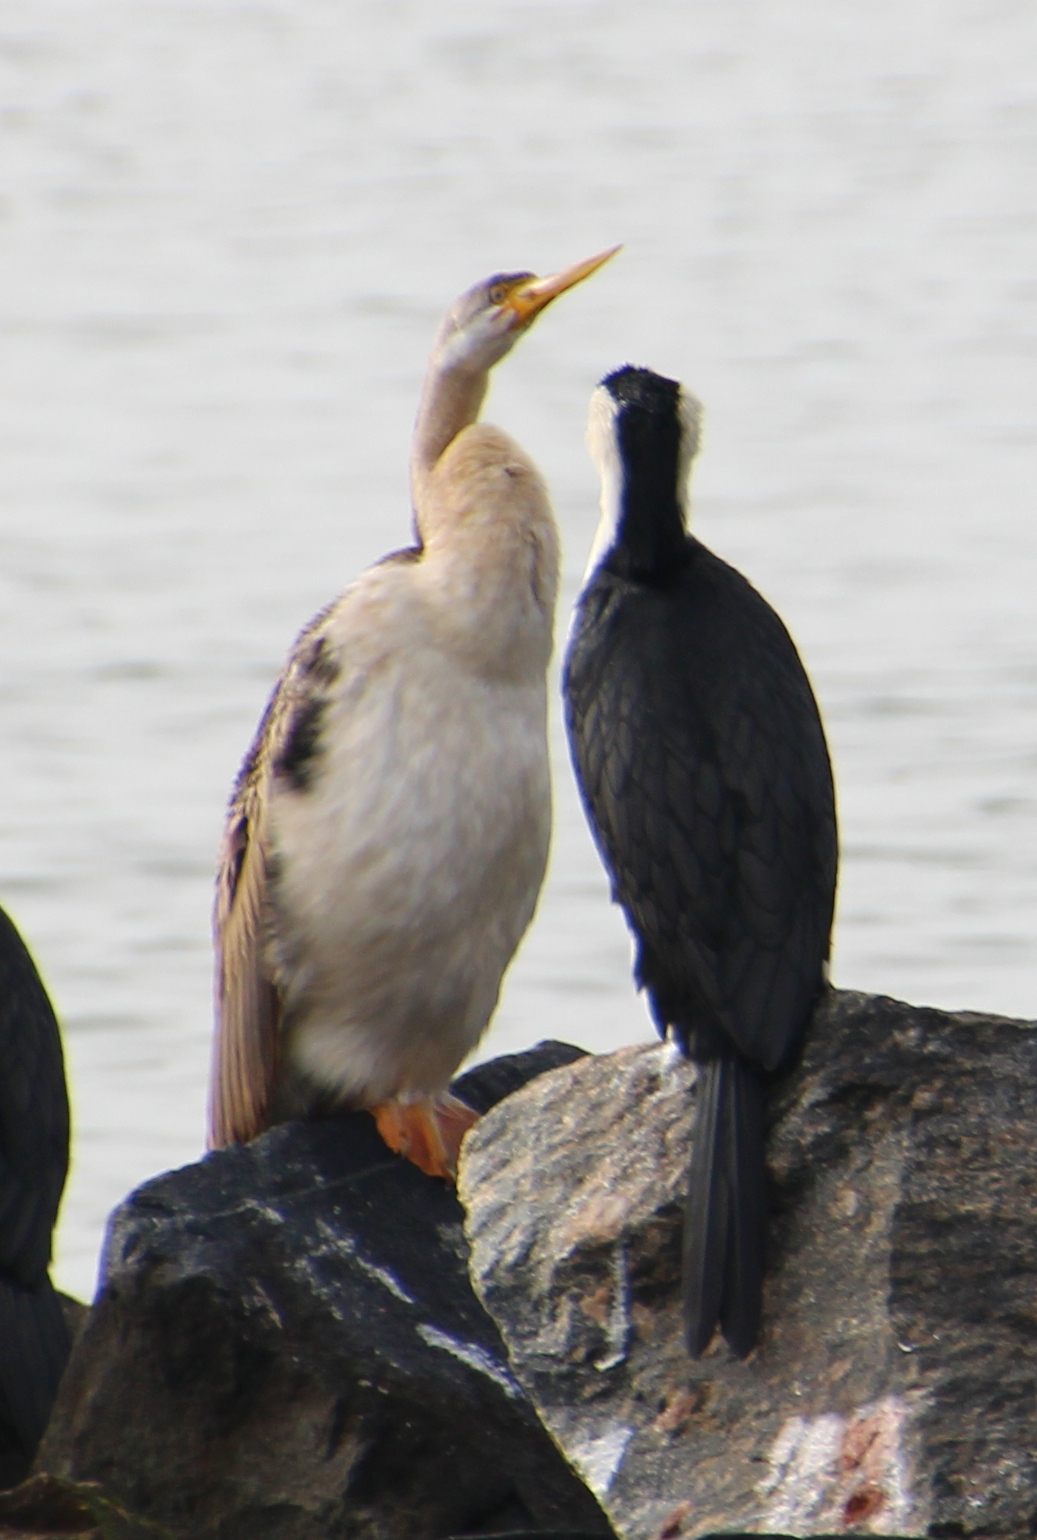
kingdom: Animalia
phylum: Chordata
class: Aves
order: Suliformes
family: Anhingidae
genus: Anhinga
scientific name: Anhinga novaehollandiae
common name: Australasian darter
